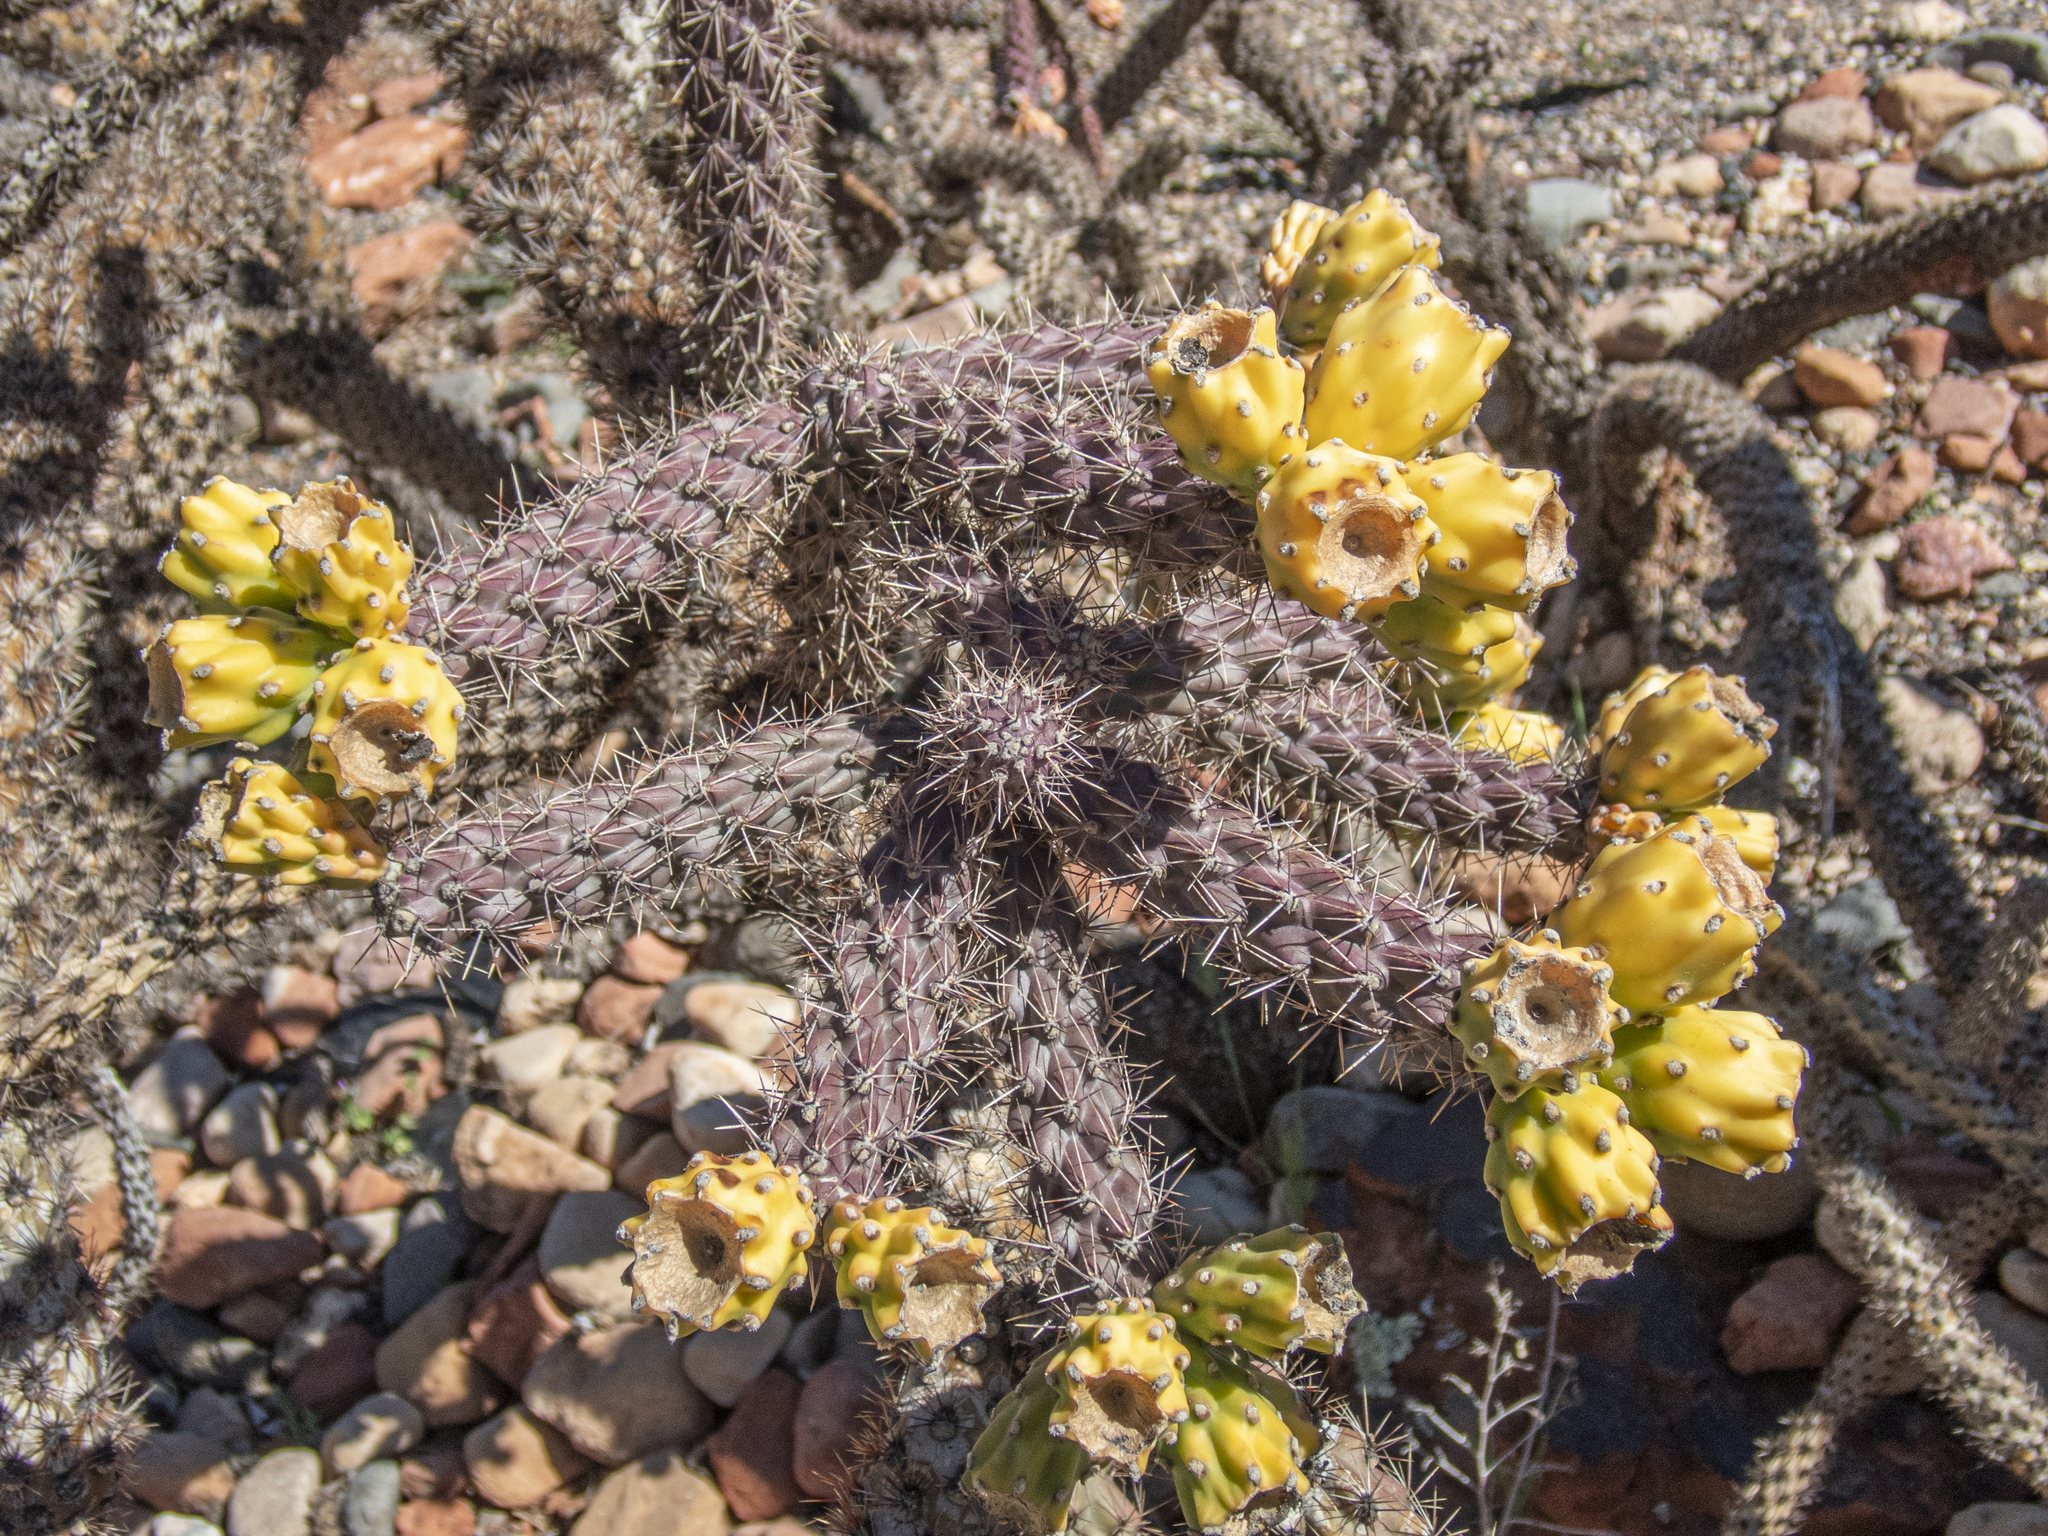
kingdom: Plantae
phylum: Tracheophyta
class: Magnoliopsida
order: Caryophyllales
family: Cactaceae
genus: Cylindropuntia
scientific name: Cylindropuntia imbricata
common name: Candelabrum cactus
